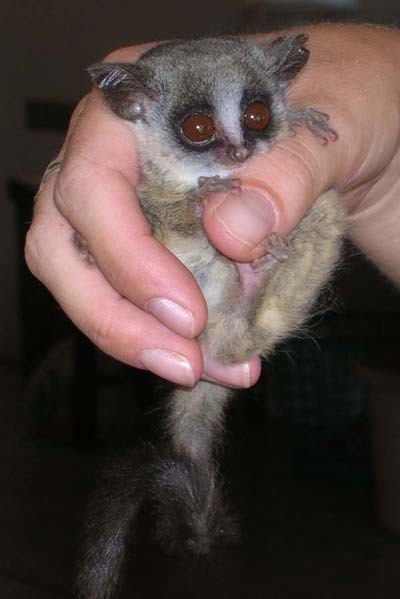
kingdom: Animalia
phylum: Chordata
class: Mammalia
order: Primates
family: Galagidae
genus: Galago
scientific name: Galago moholi
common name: Moholi bushbaby
